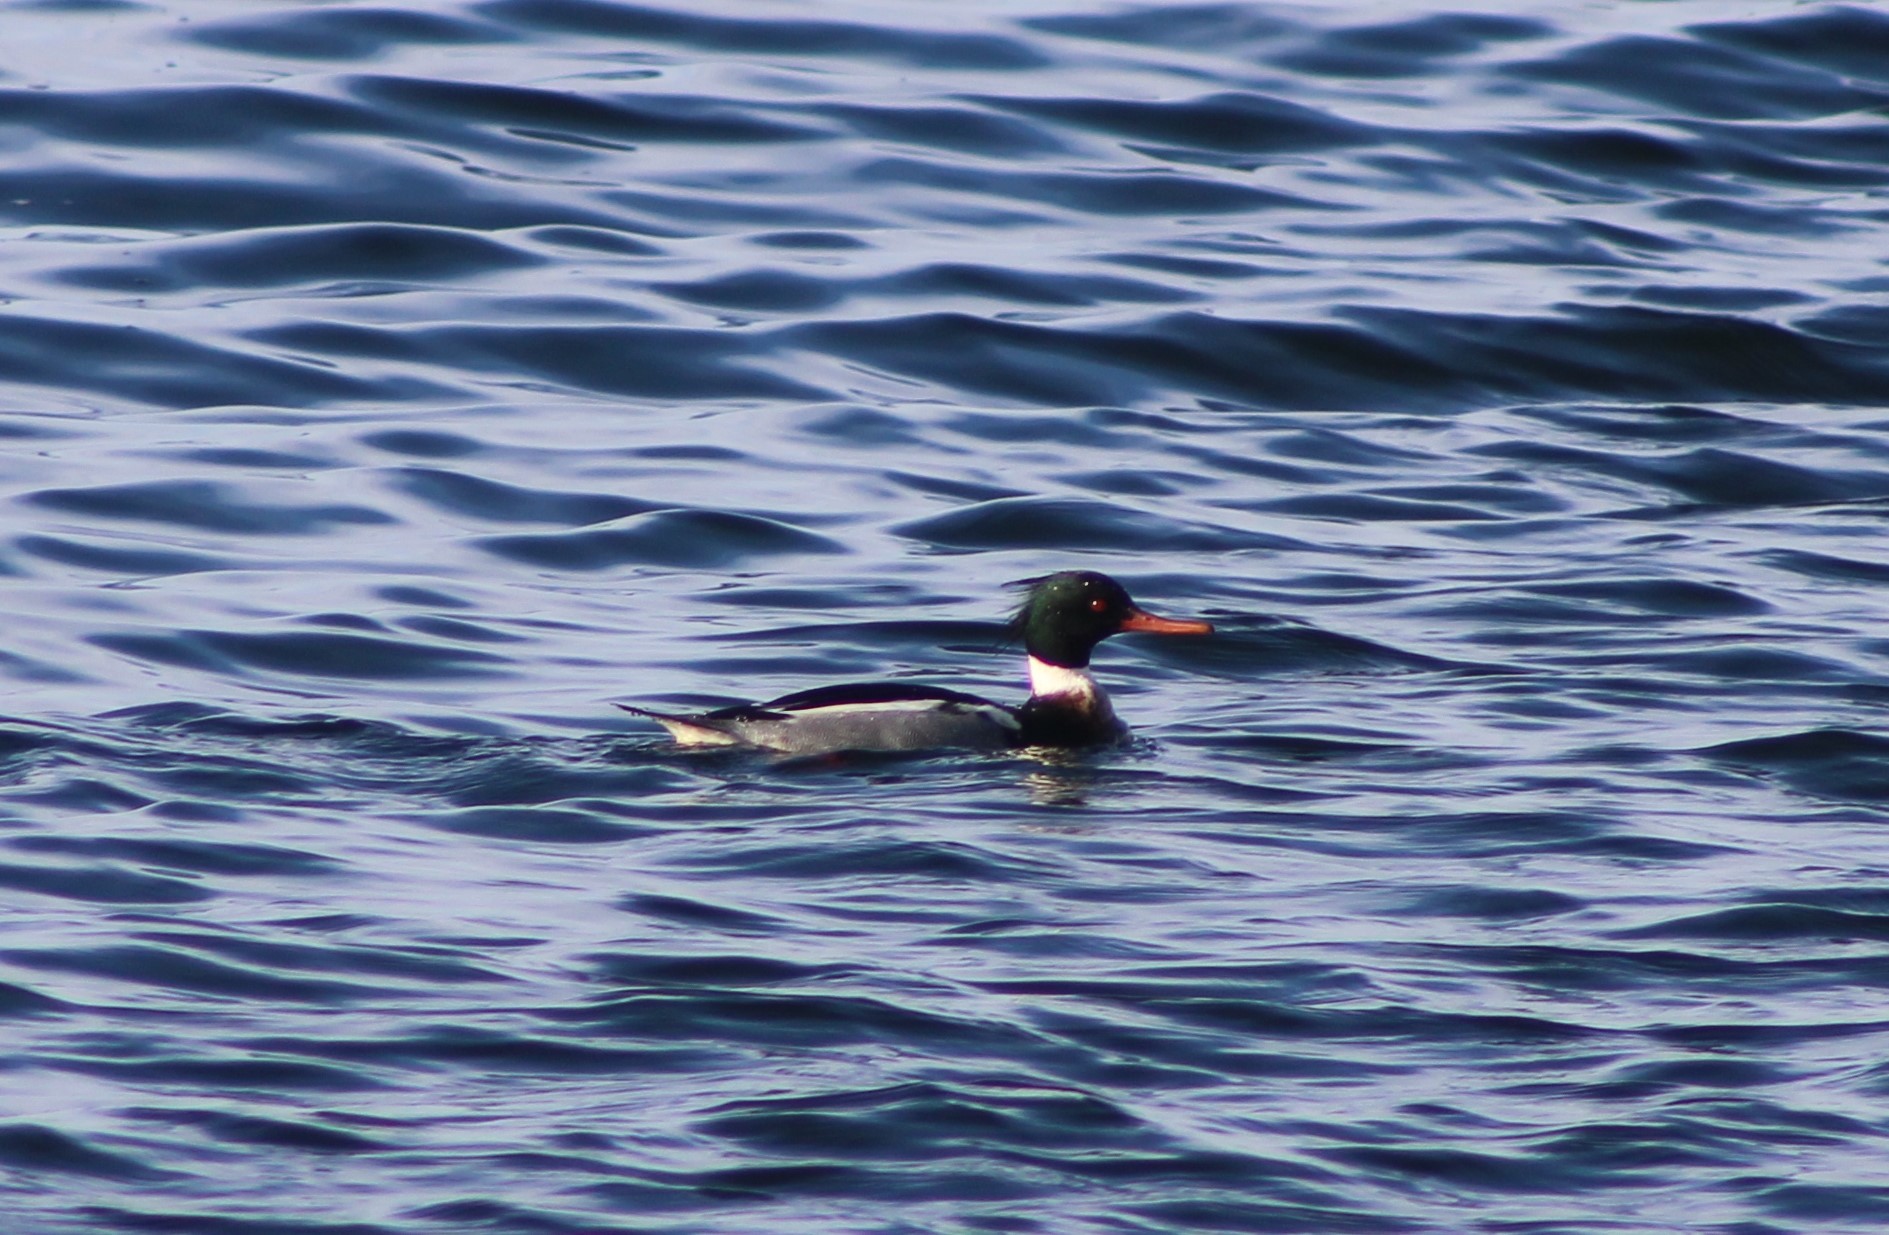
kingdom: Animalia
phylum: Chordata
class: Aves
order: Anseriformes
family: Anatidae
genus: Mergus
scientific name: Mergus serrator
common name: Red-breasted merganser
